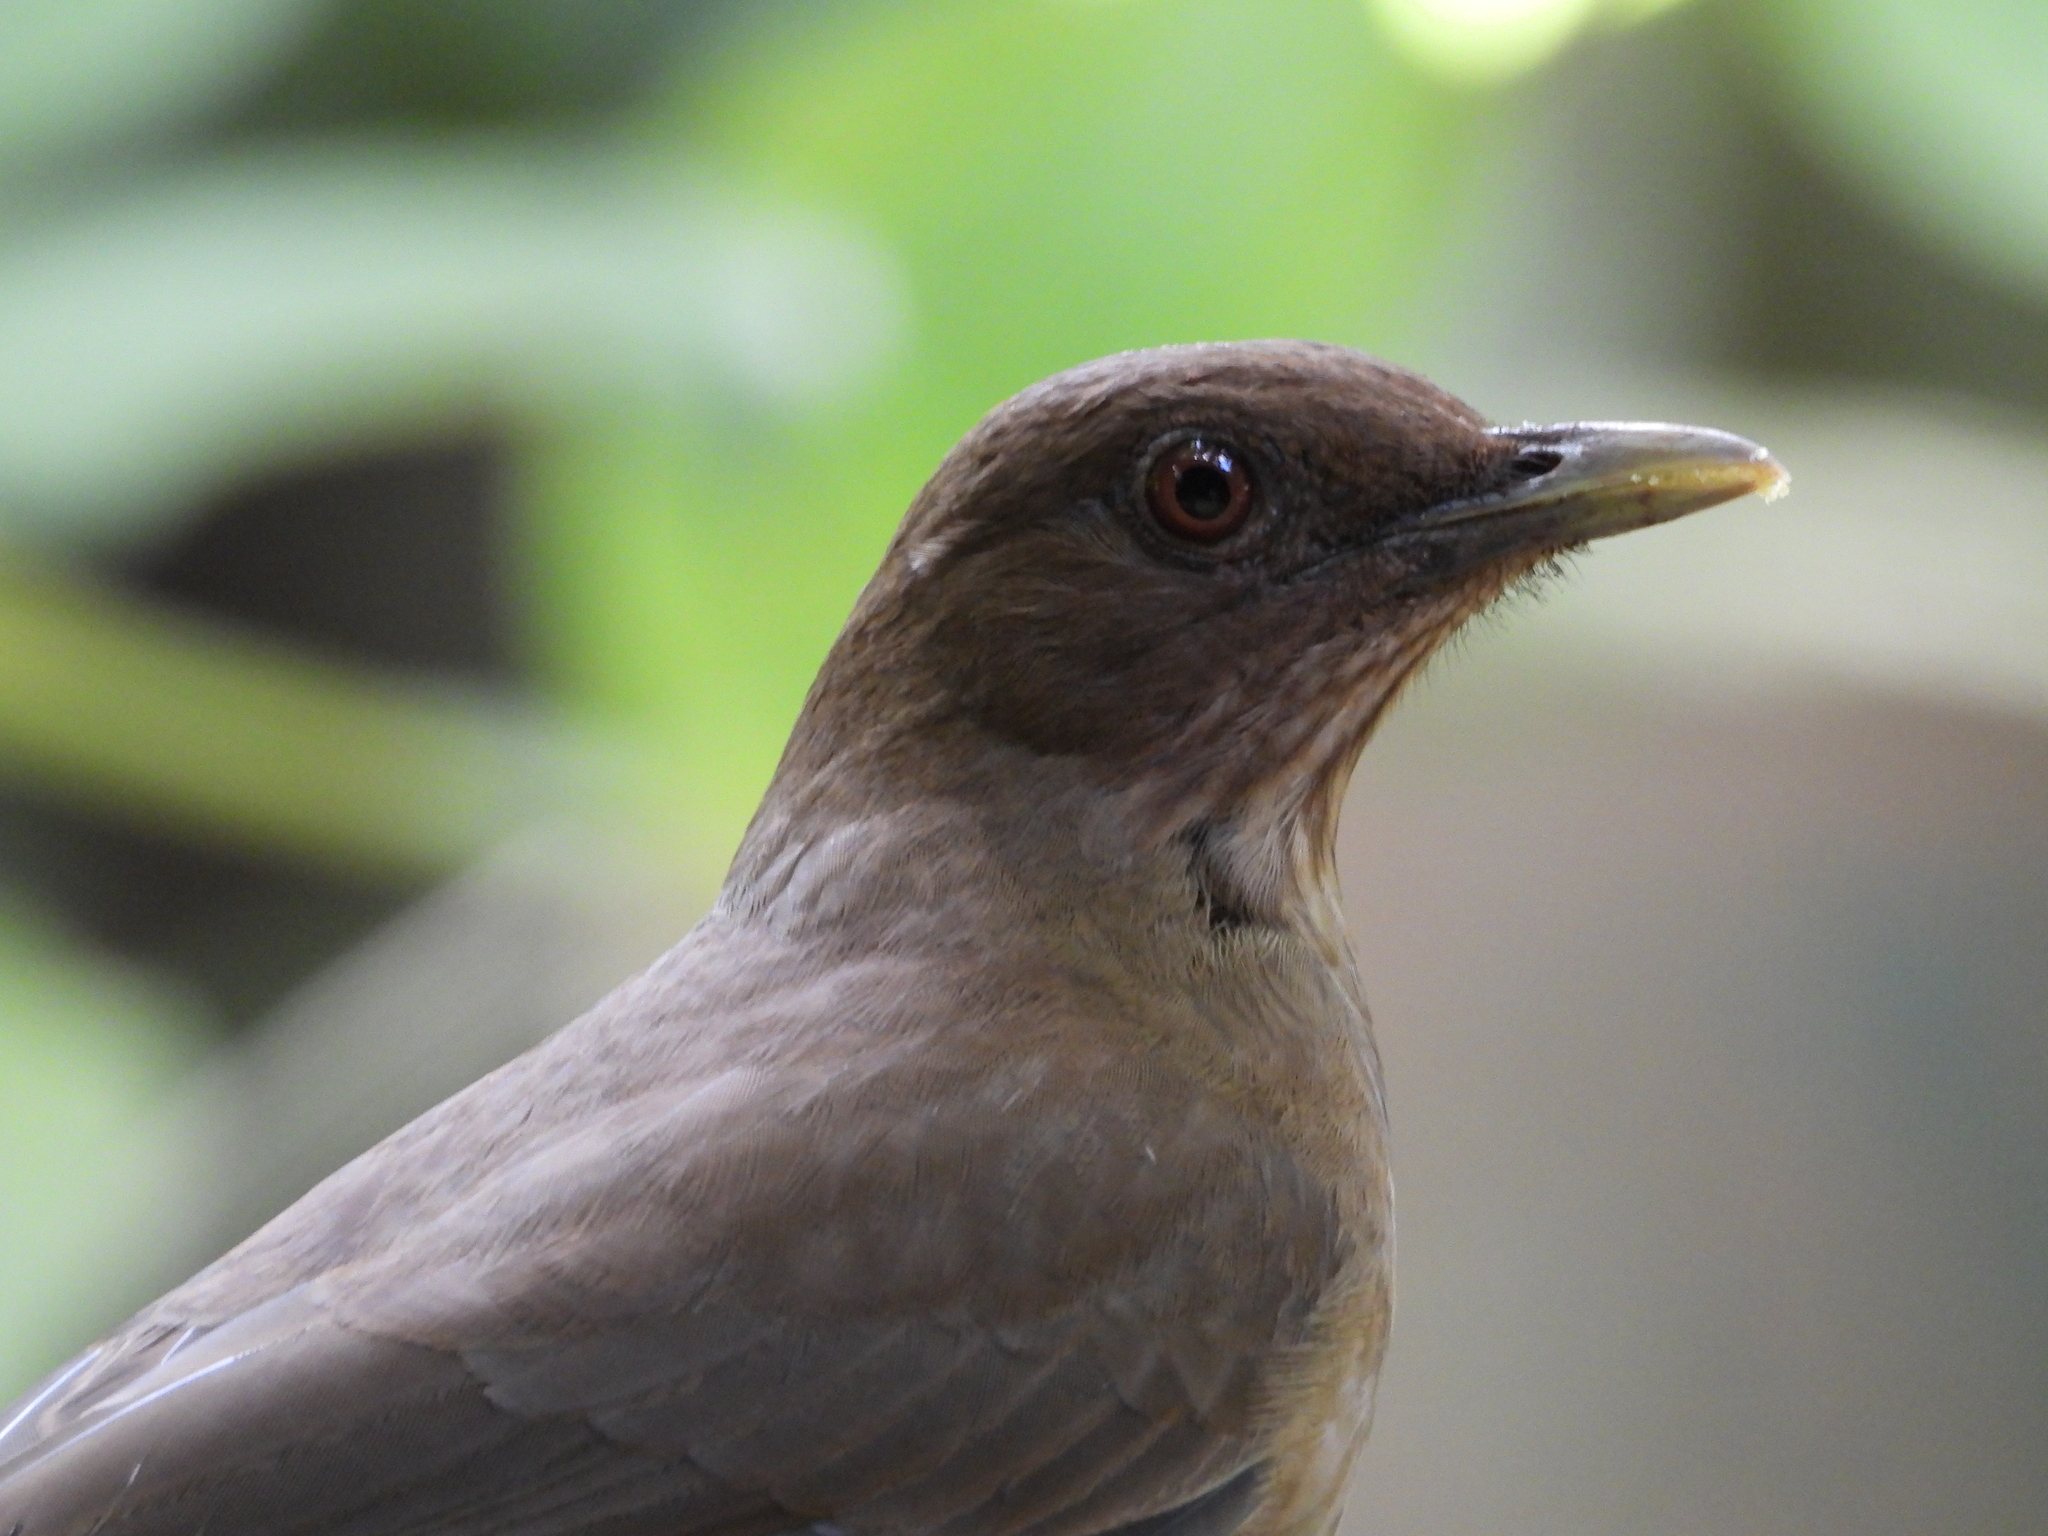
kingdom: Animalia
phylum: Chordata
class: Aves
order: Passeriformes
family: Turdidae
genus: Turdus
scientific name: Turdus grayi
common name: Clay-colored thrush
